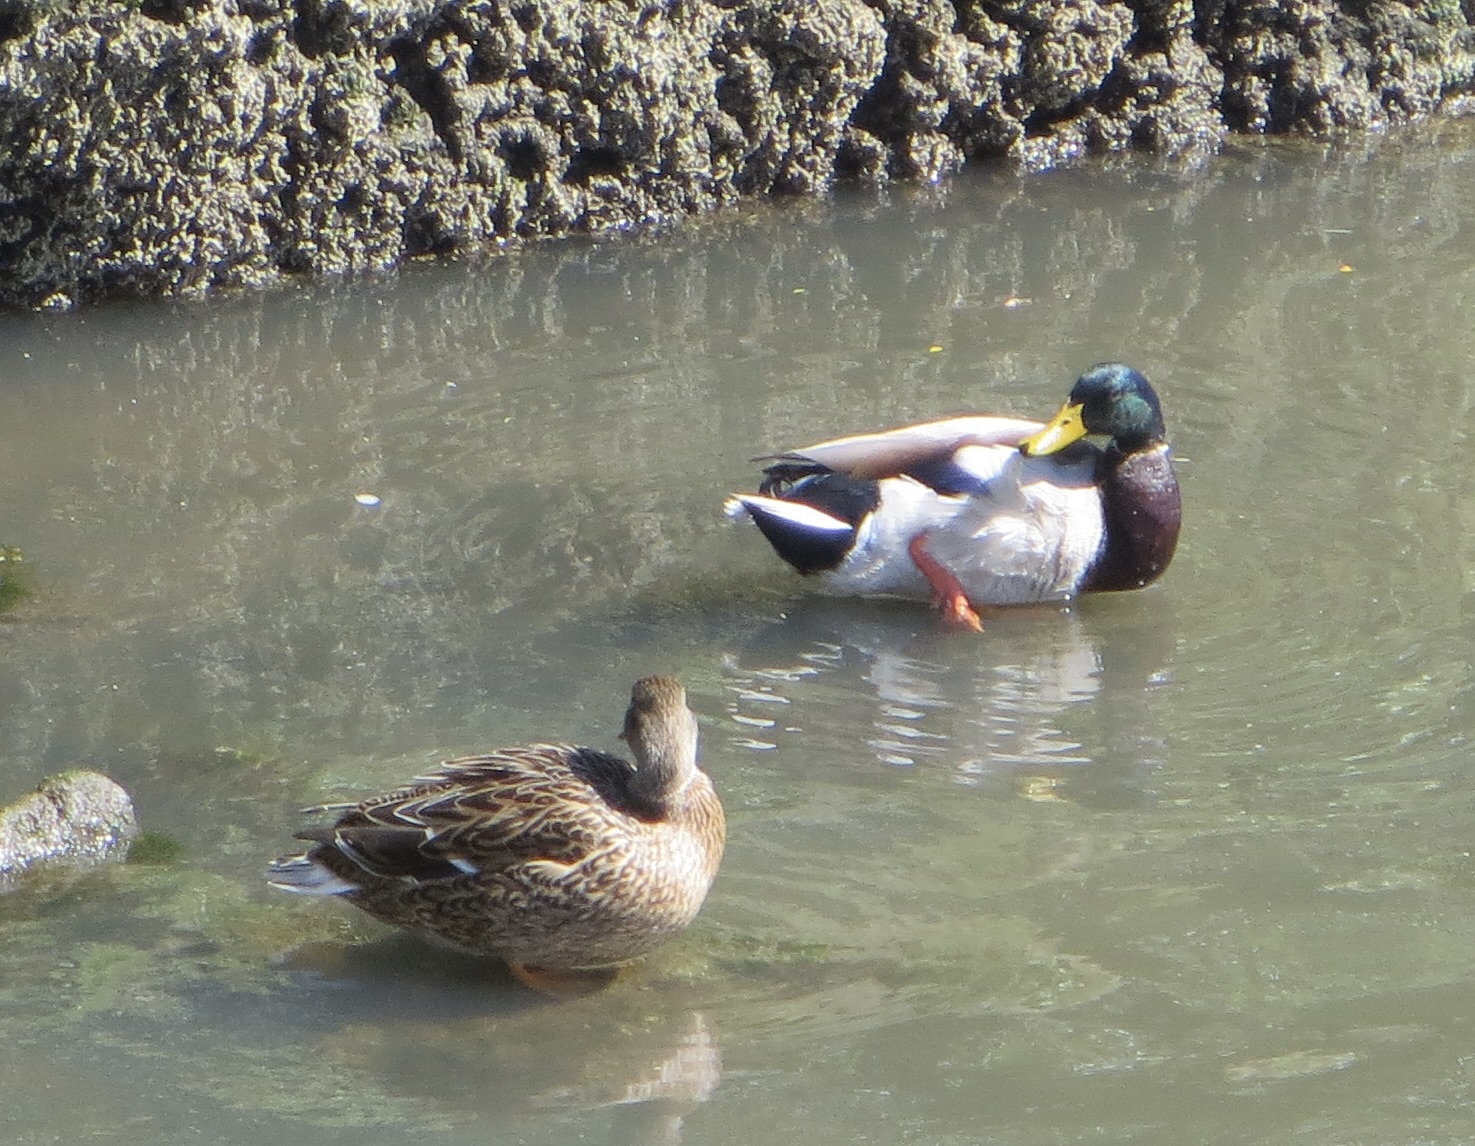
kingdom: Animalia
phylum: Chordata
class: Aves
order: Anseriformes
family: Anatidae
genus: Anas
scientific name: Anas platyrhynchos
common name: Mallard
